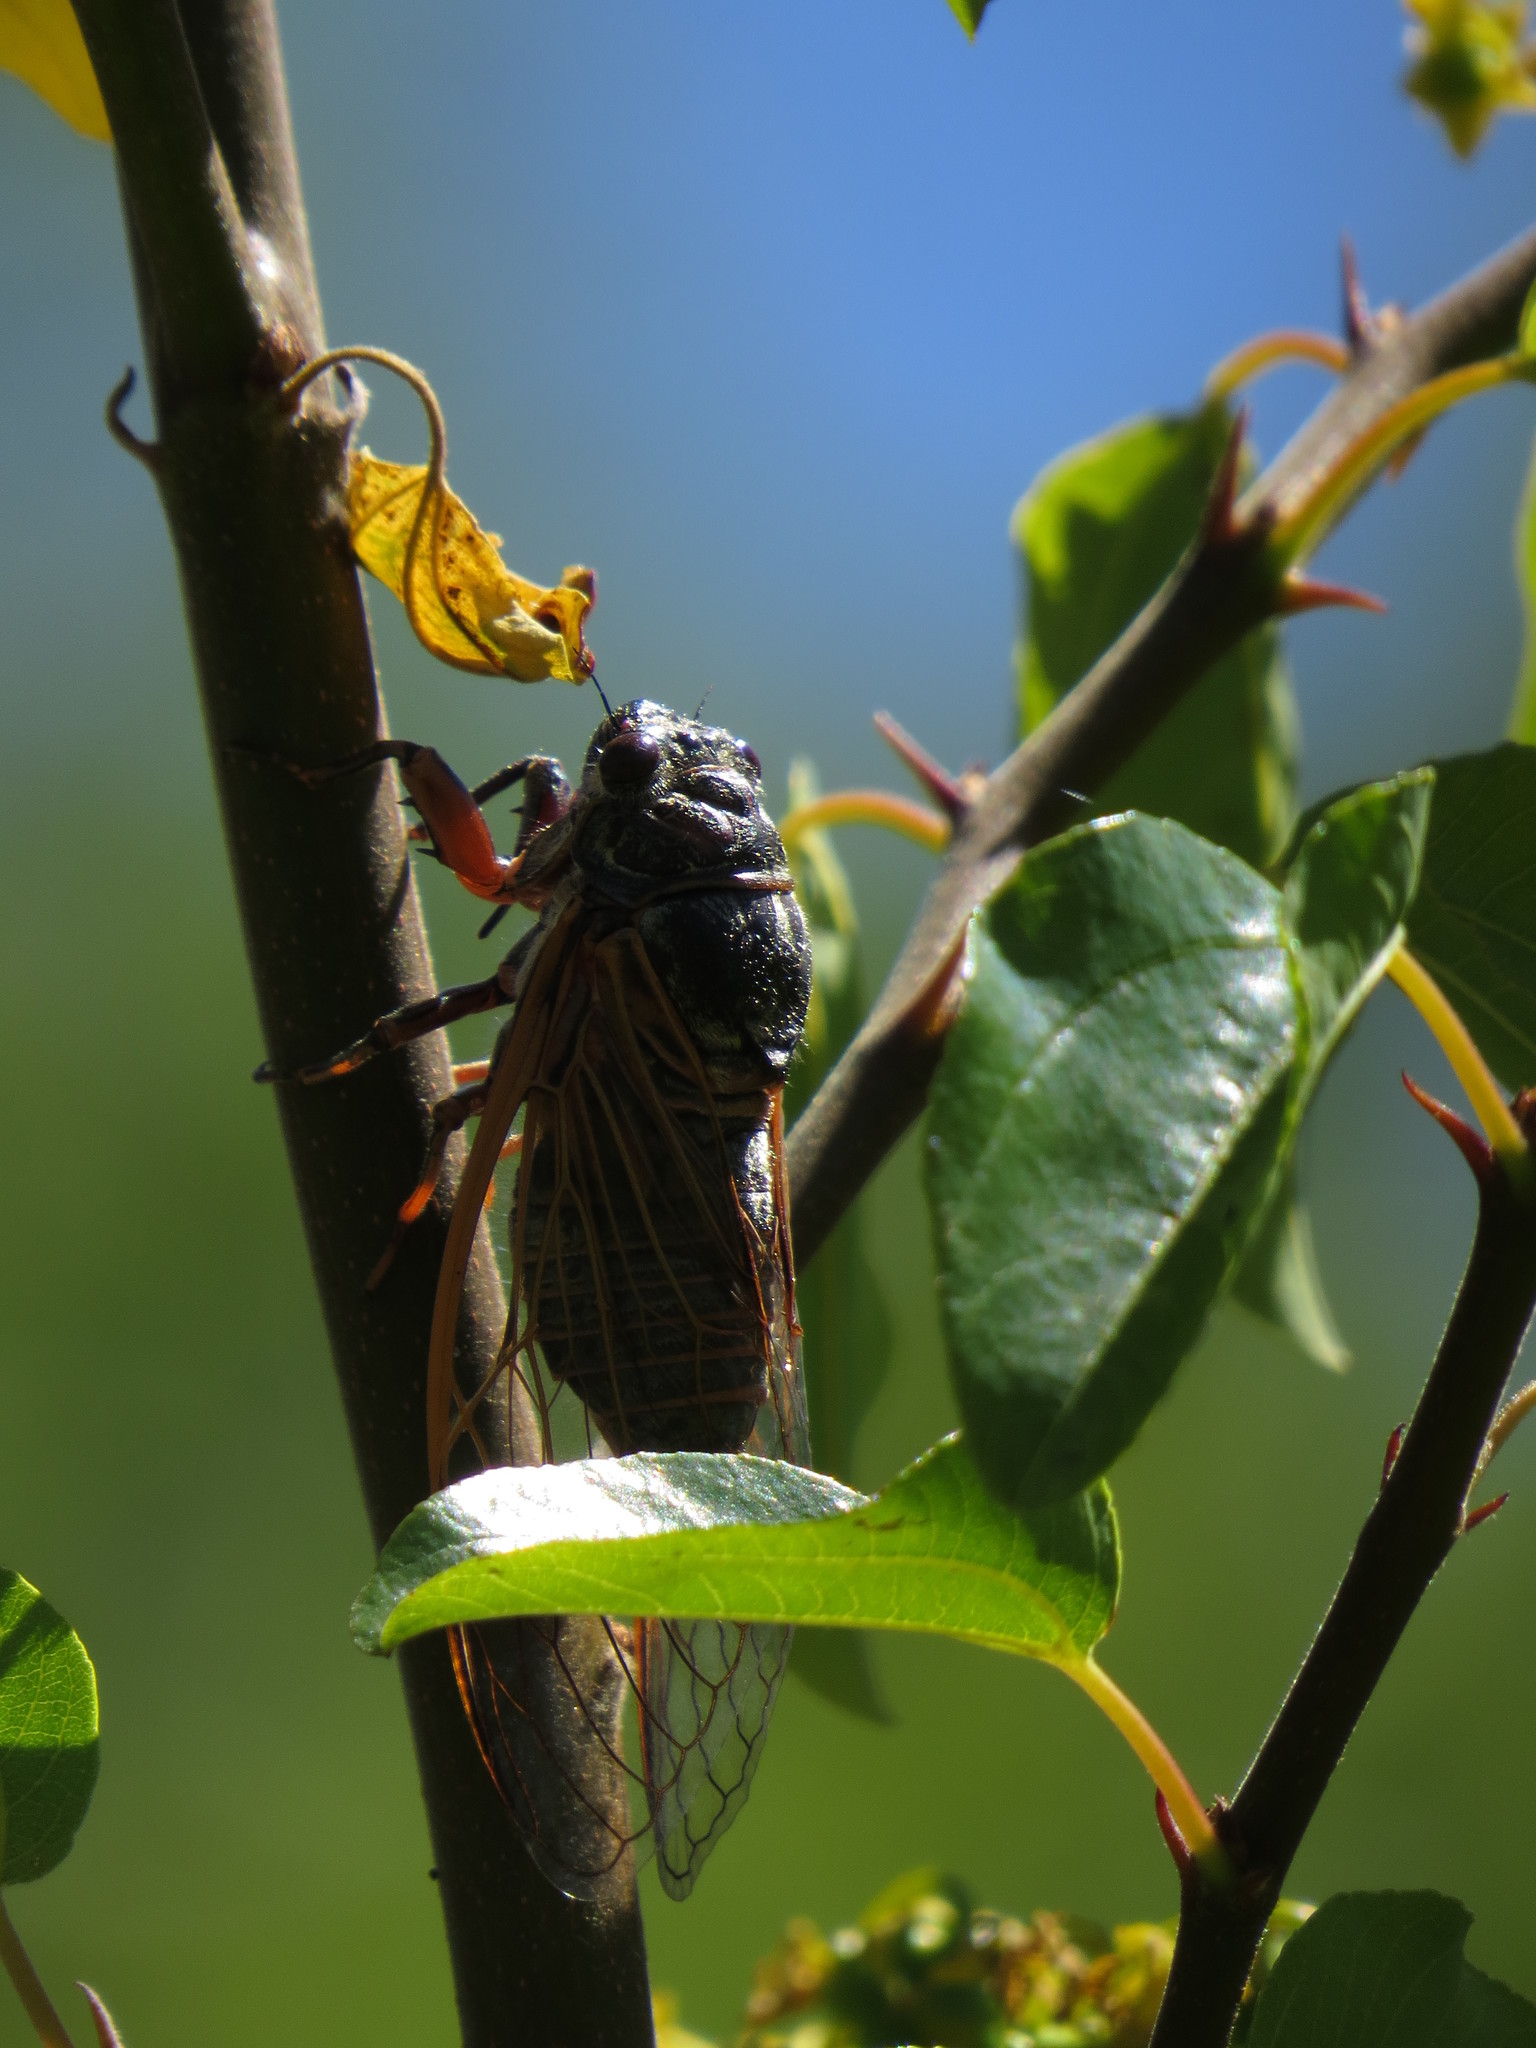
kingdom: Animalia
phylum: Arthropoda
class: Insecta
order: Hemiptera
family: Cicadidae
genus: Tibicina
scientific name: Tibicina haematodes
